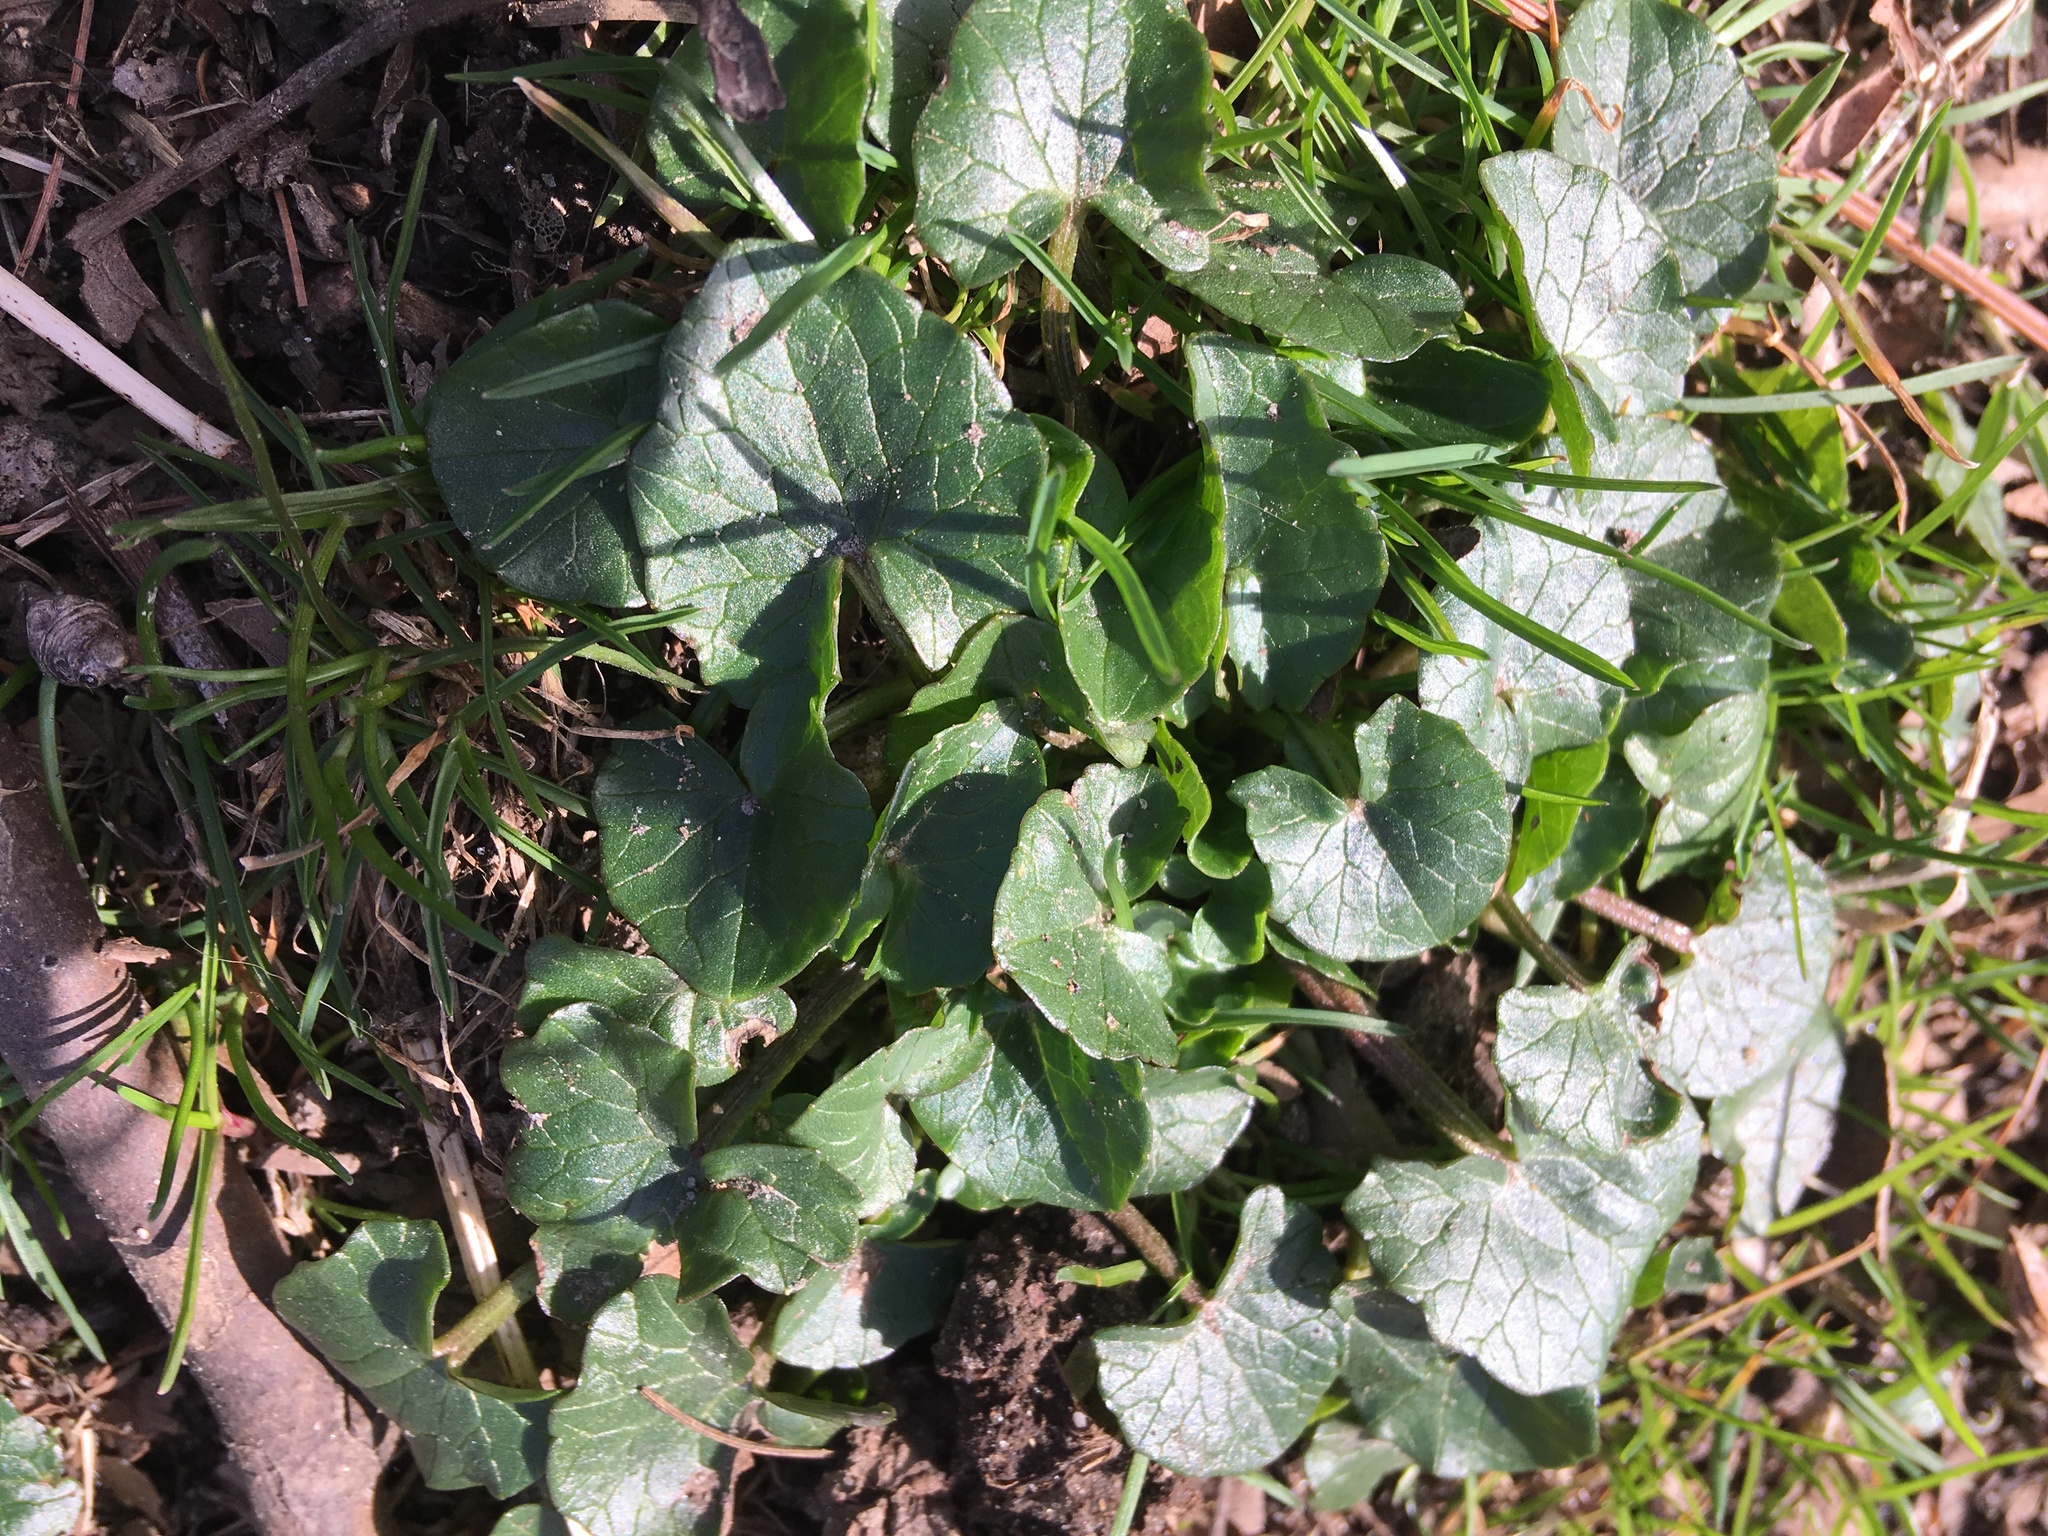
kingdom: Plantae
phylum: Tracheophyta
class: Magnoliopsida
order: Ranunculales
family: Ranunculaceae
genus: Ficaria
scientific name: Ficaria verna
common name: Lesser celandine
